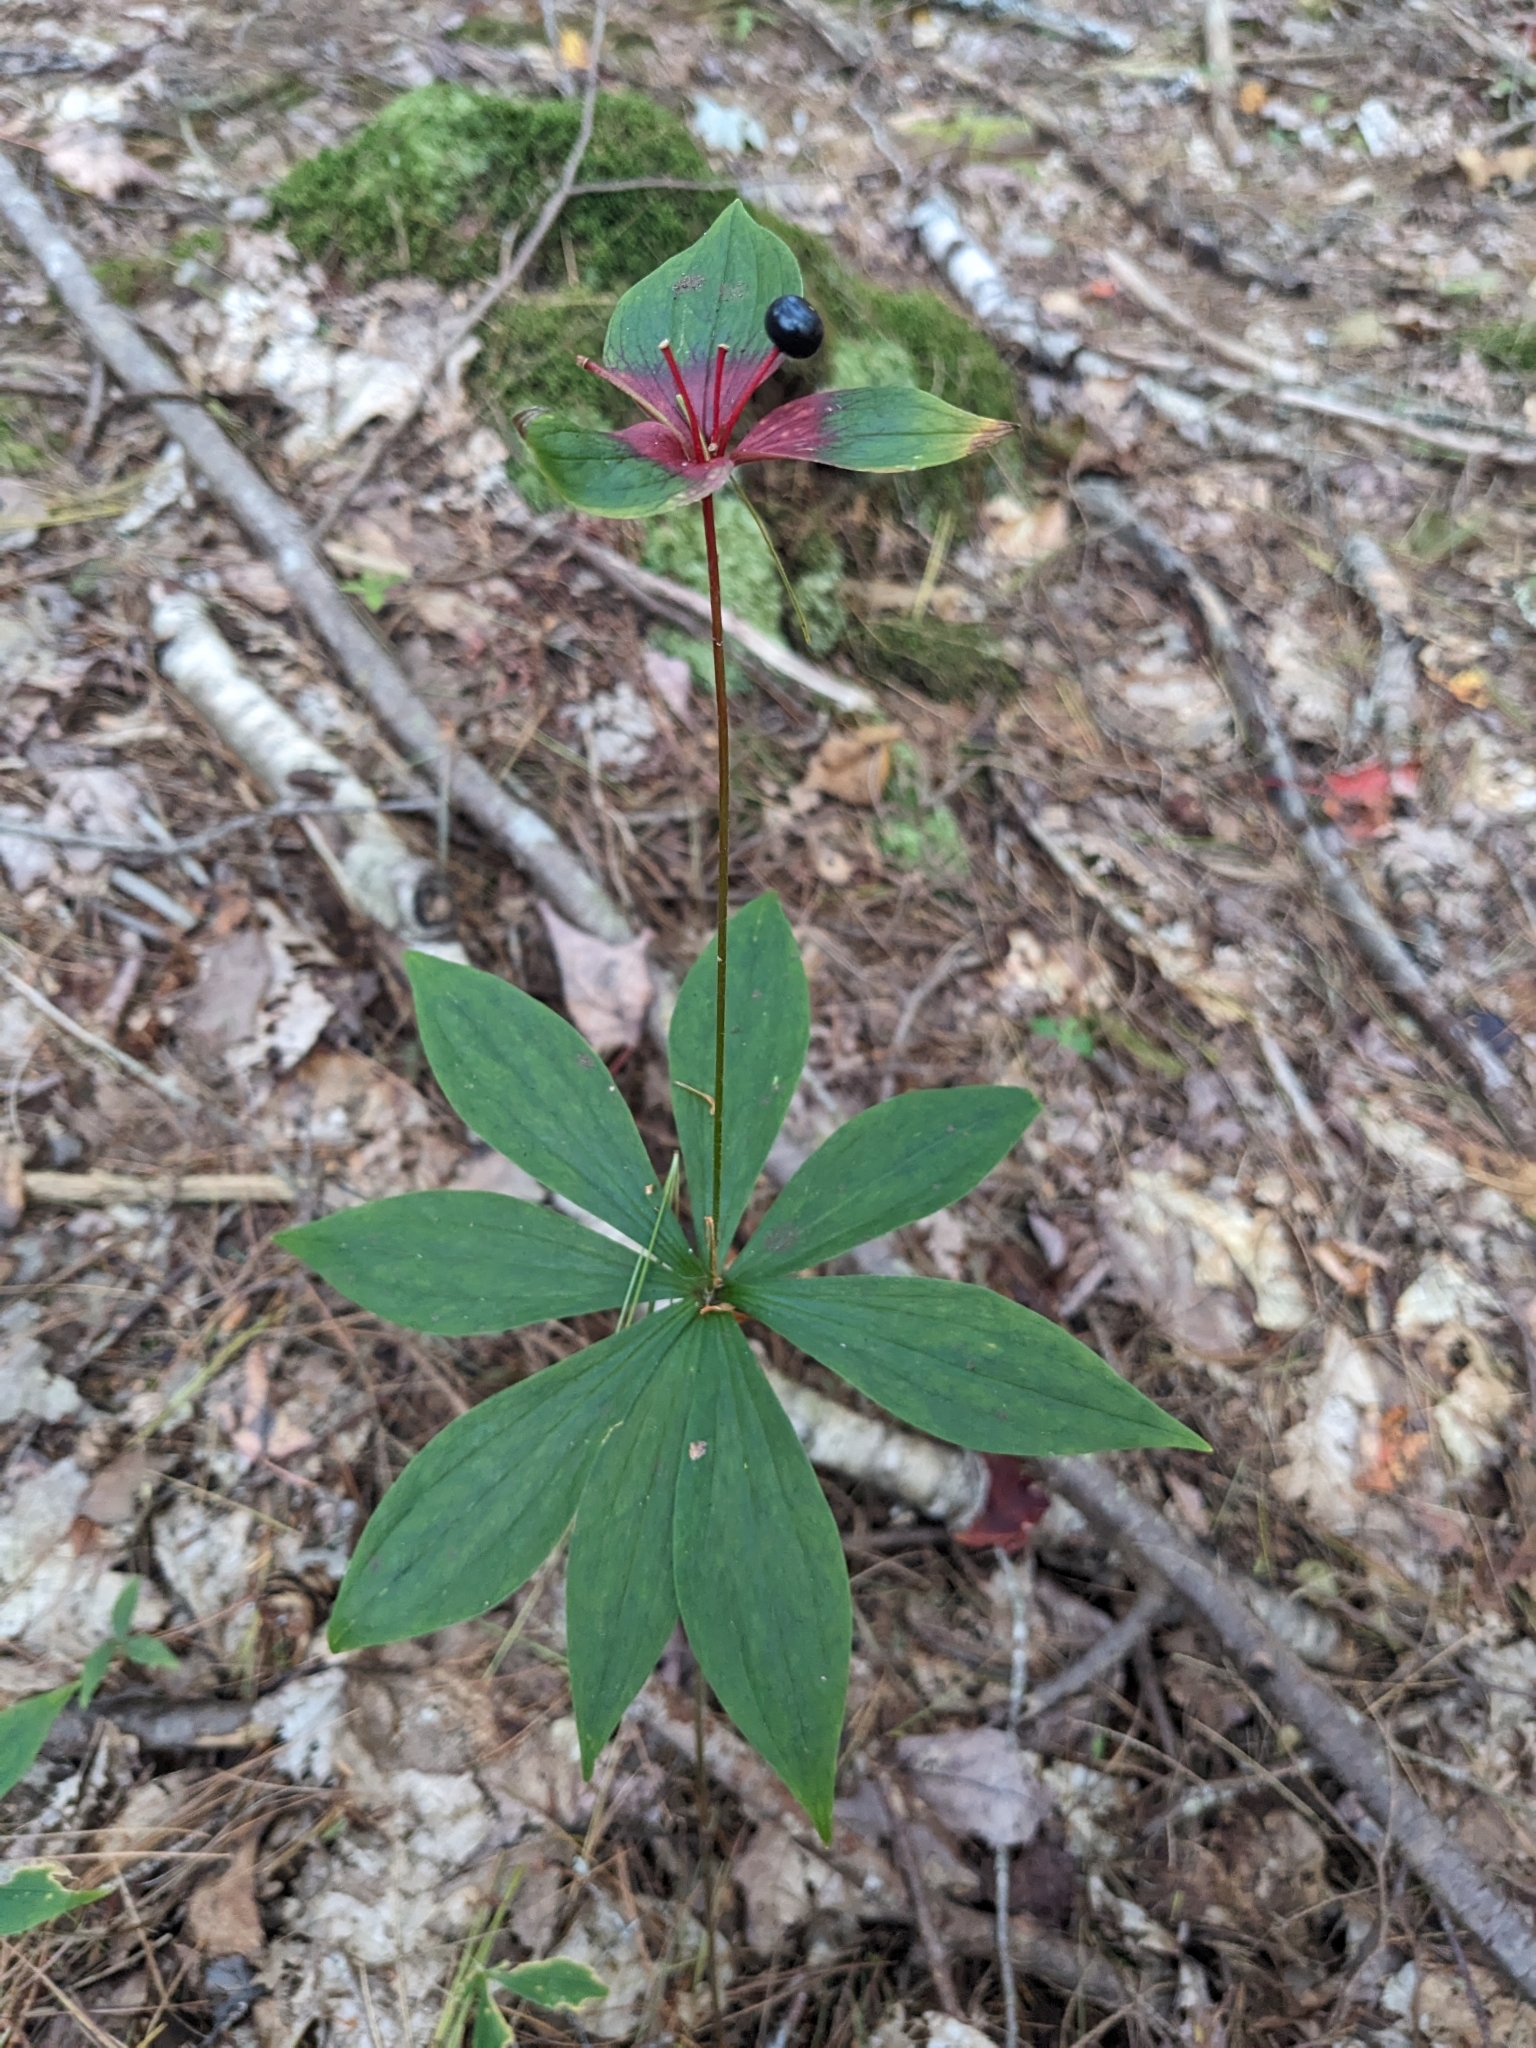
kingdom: Plantae
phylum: Tracheophyta
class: Liliopsida
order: Liliales
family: Liliaceae
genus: Medeola
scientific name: Medeola virginiana
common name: Indian cucumber-root
